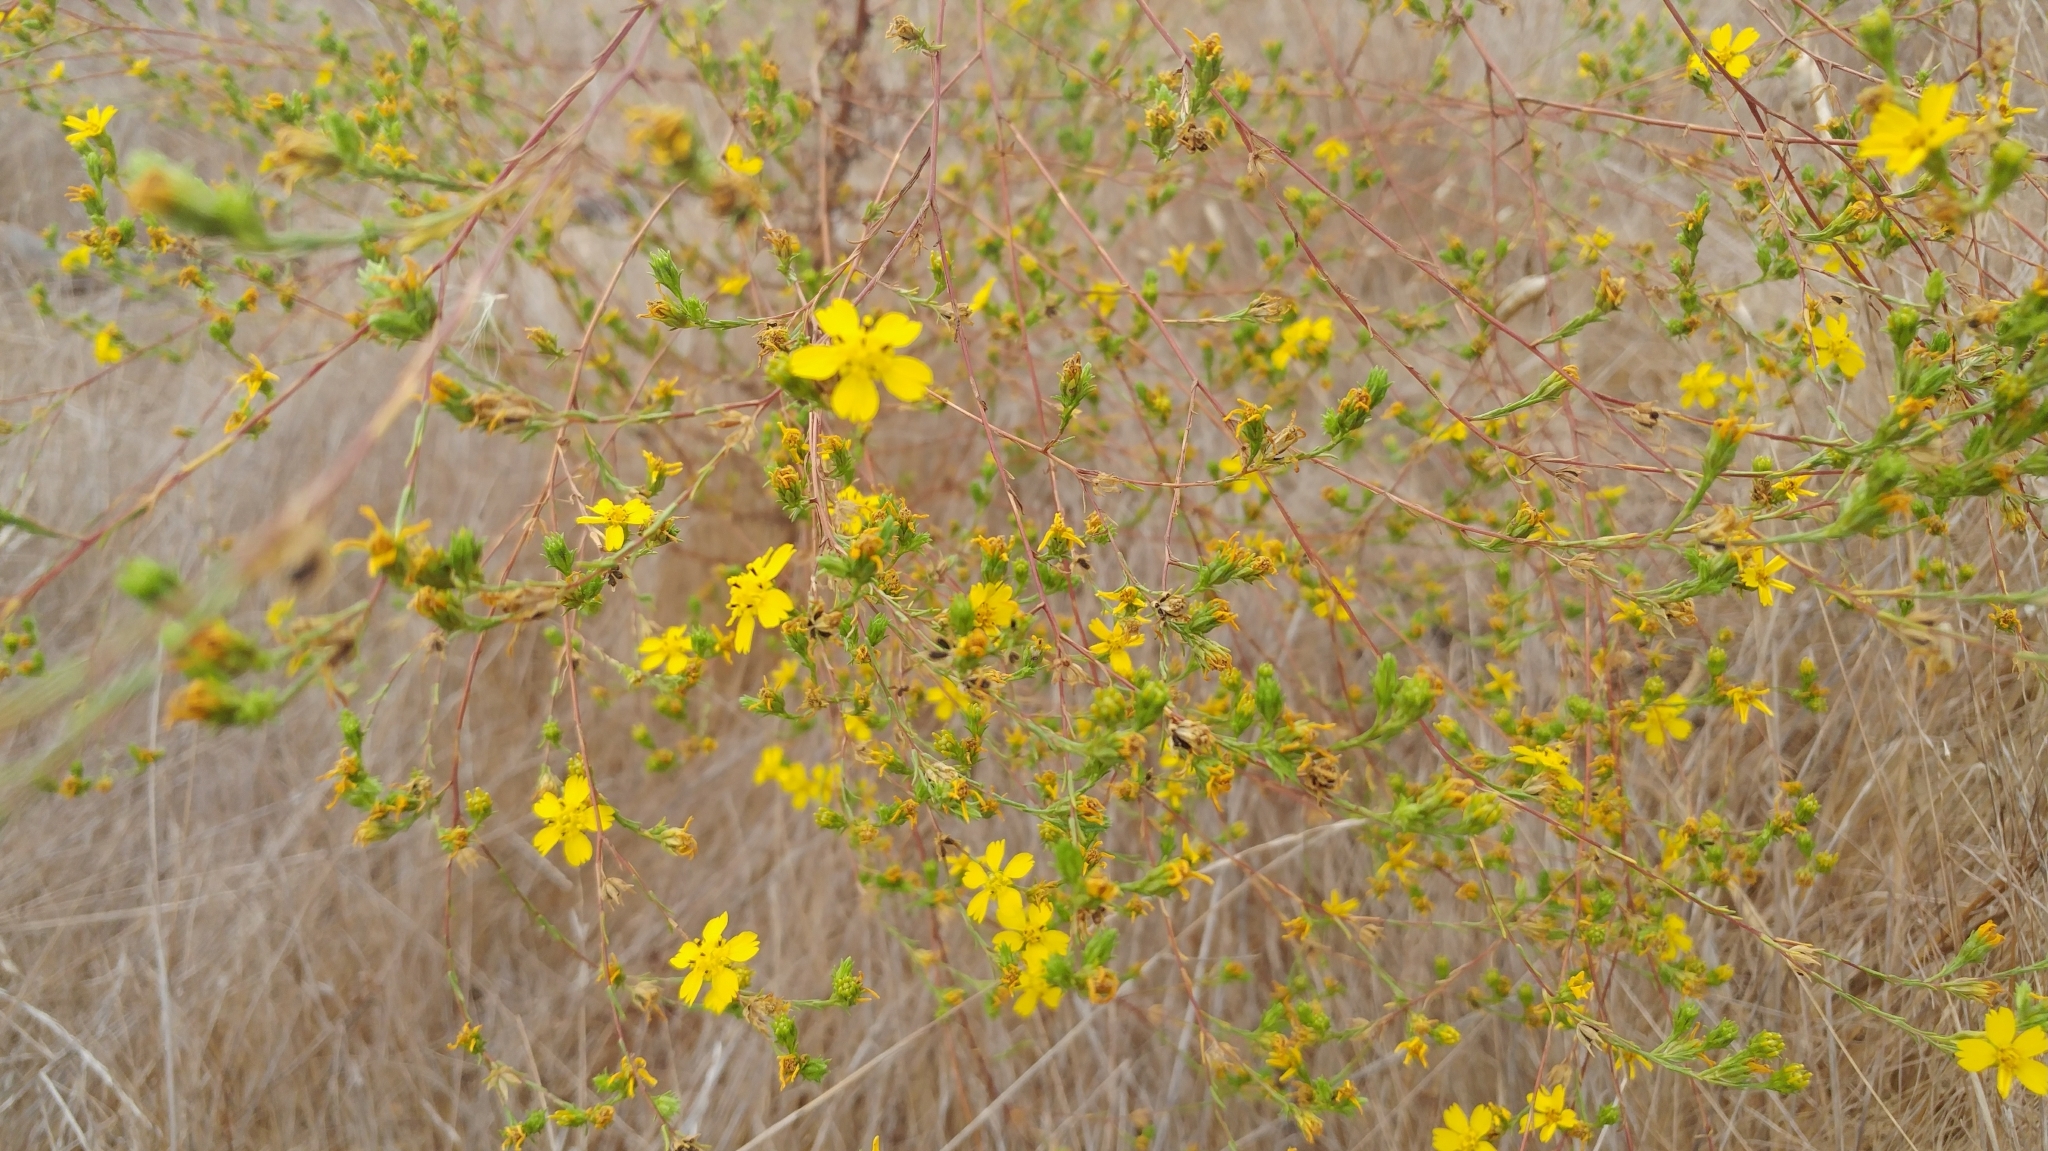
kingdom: Plantae
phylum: Tracheophyta
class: Magnoliopsida
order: Asterales
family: Asteraceae
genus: Deinandra
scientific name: Deinandra fasciculata
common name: Clustered tarweed
